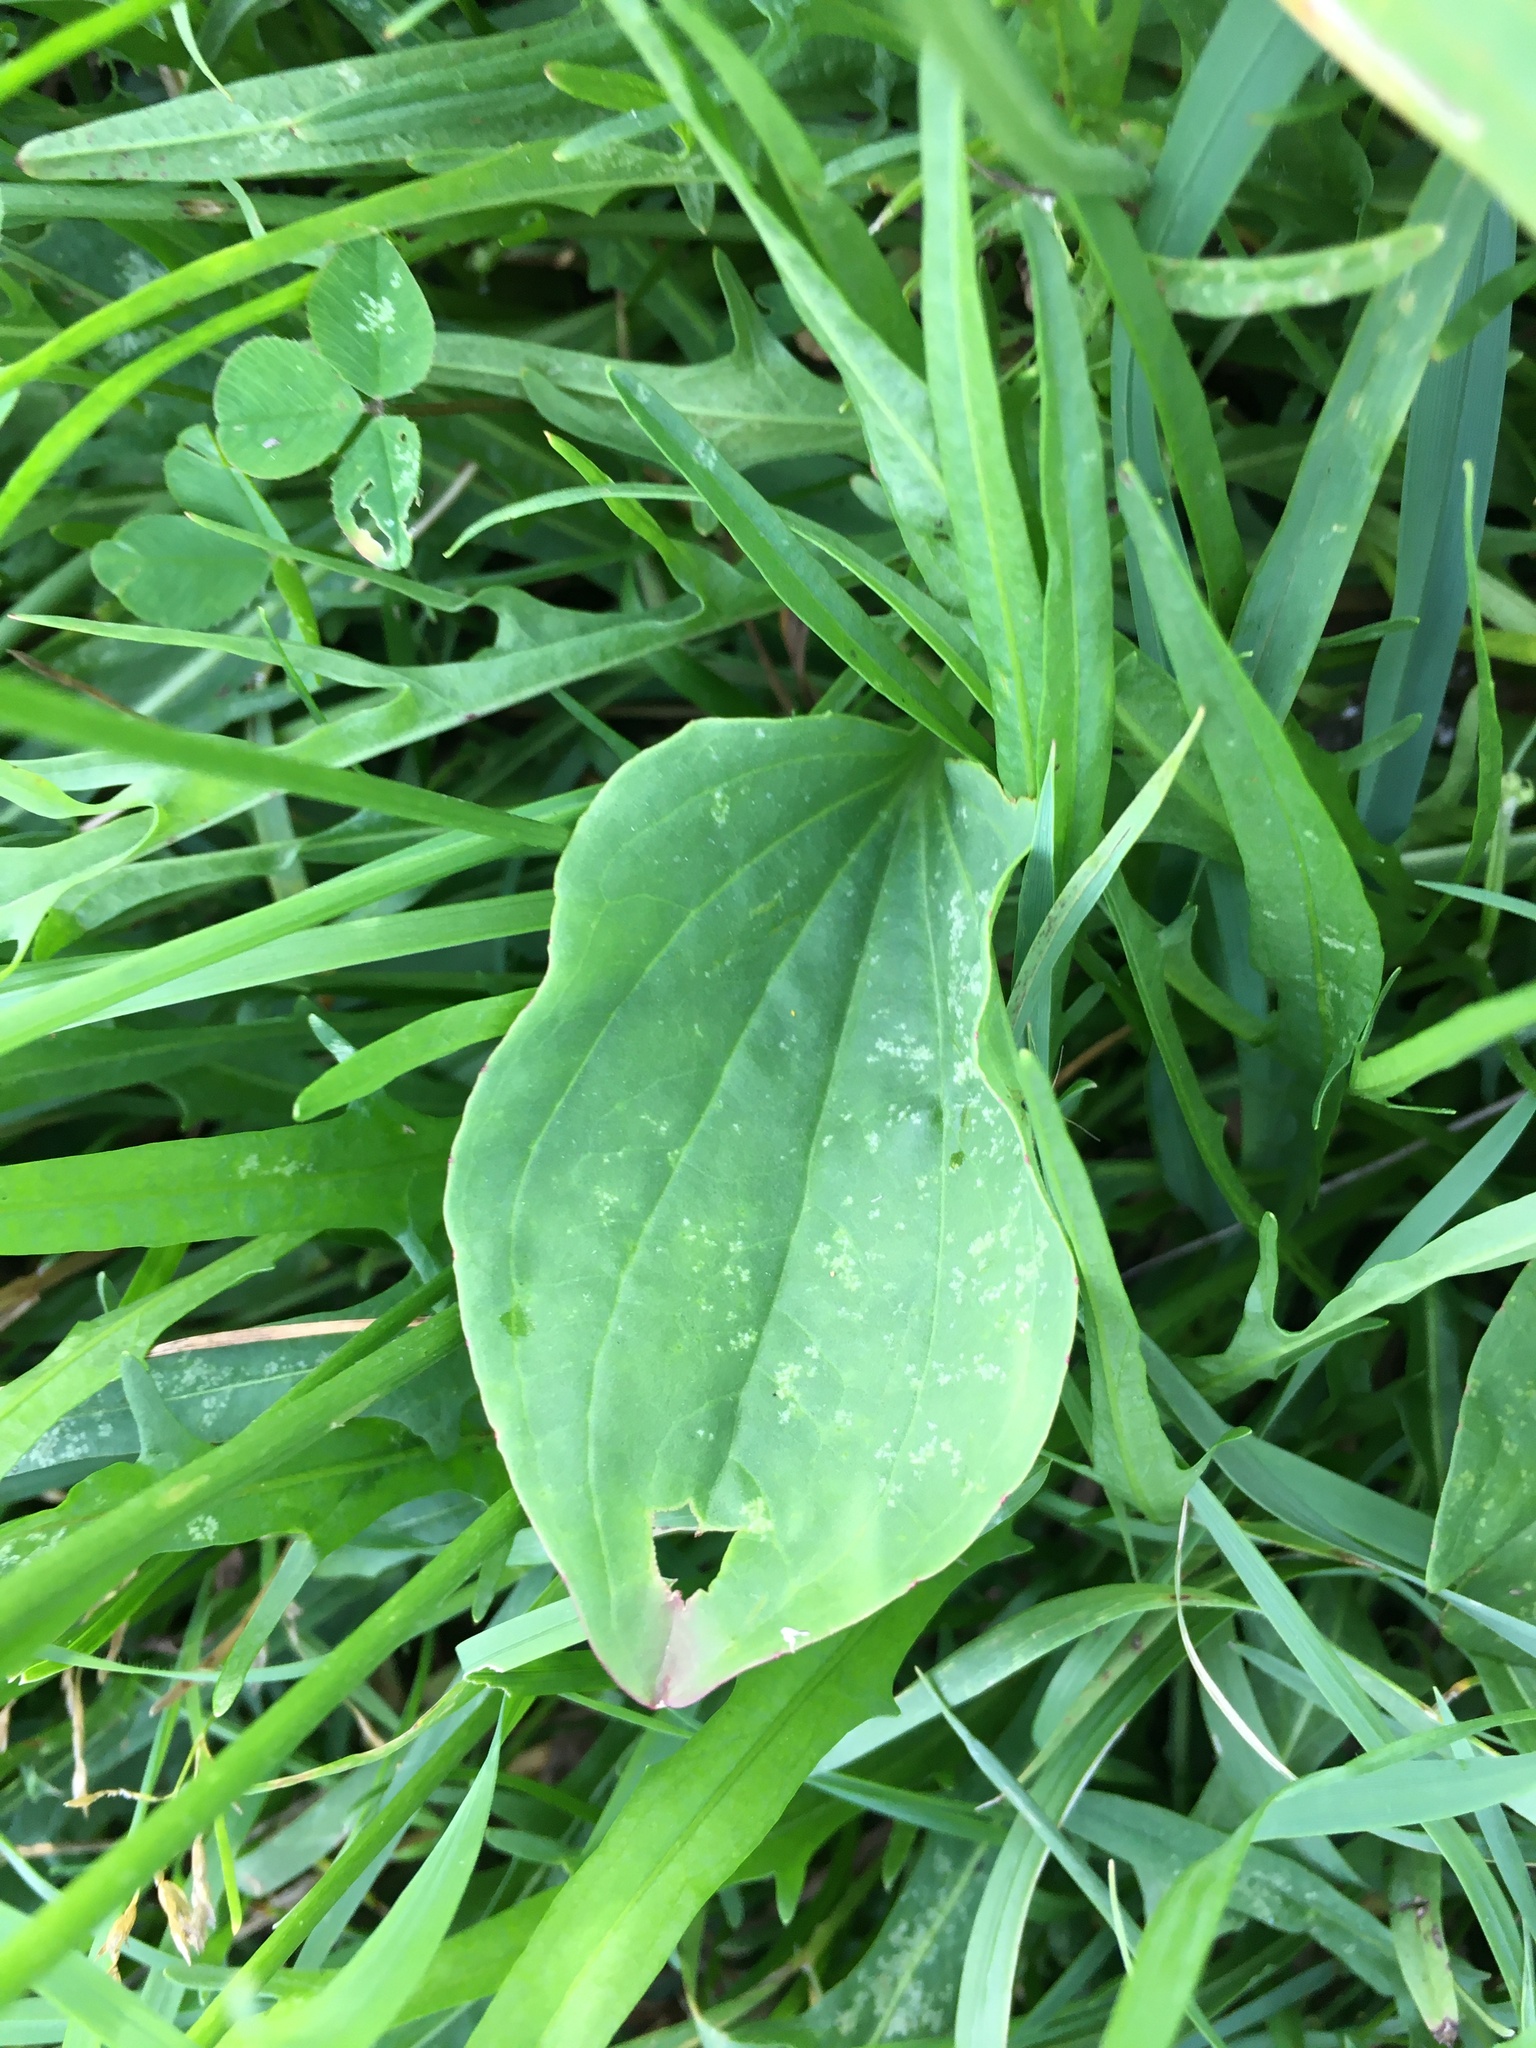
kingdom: Plantae
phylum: Tracheophyta
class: Magnoliopsida
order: Lamiales
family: Plantaginaceae
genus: Plantago
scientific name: Plantago major
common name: Common plantain
